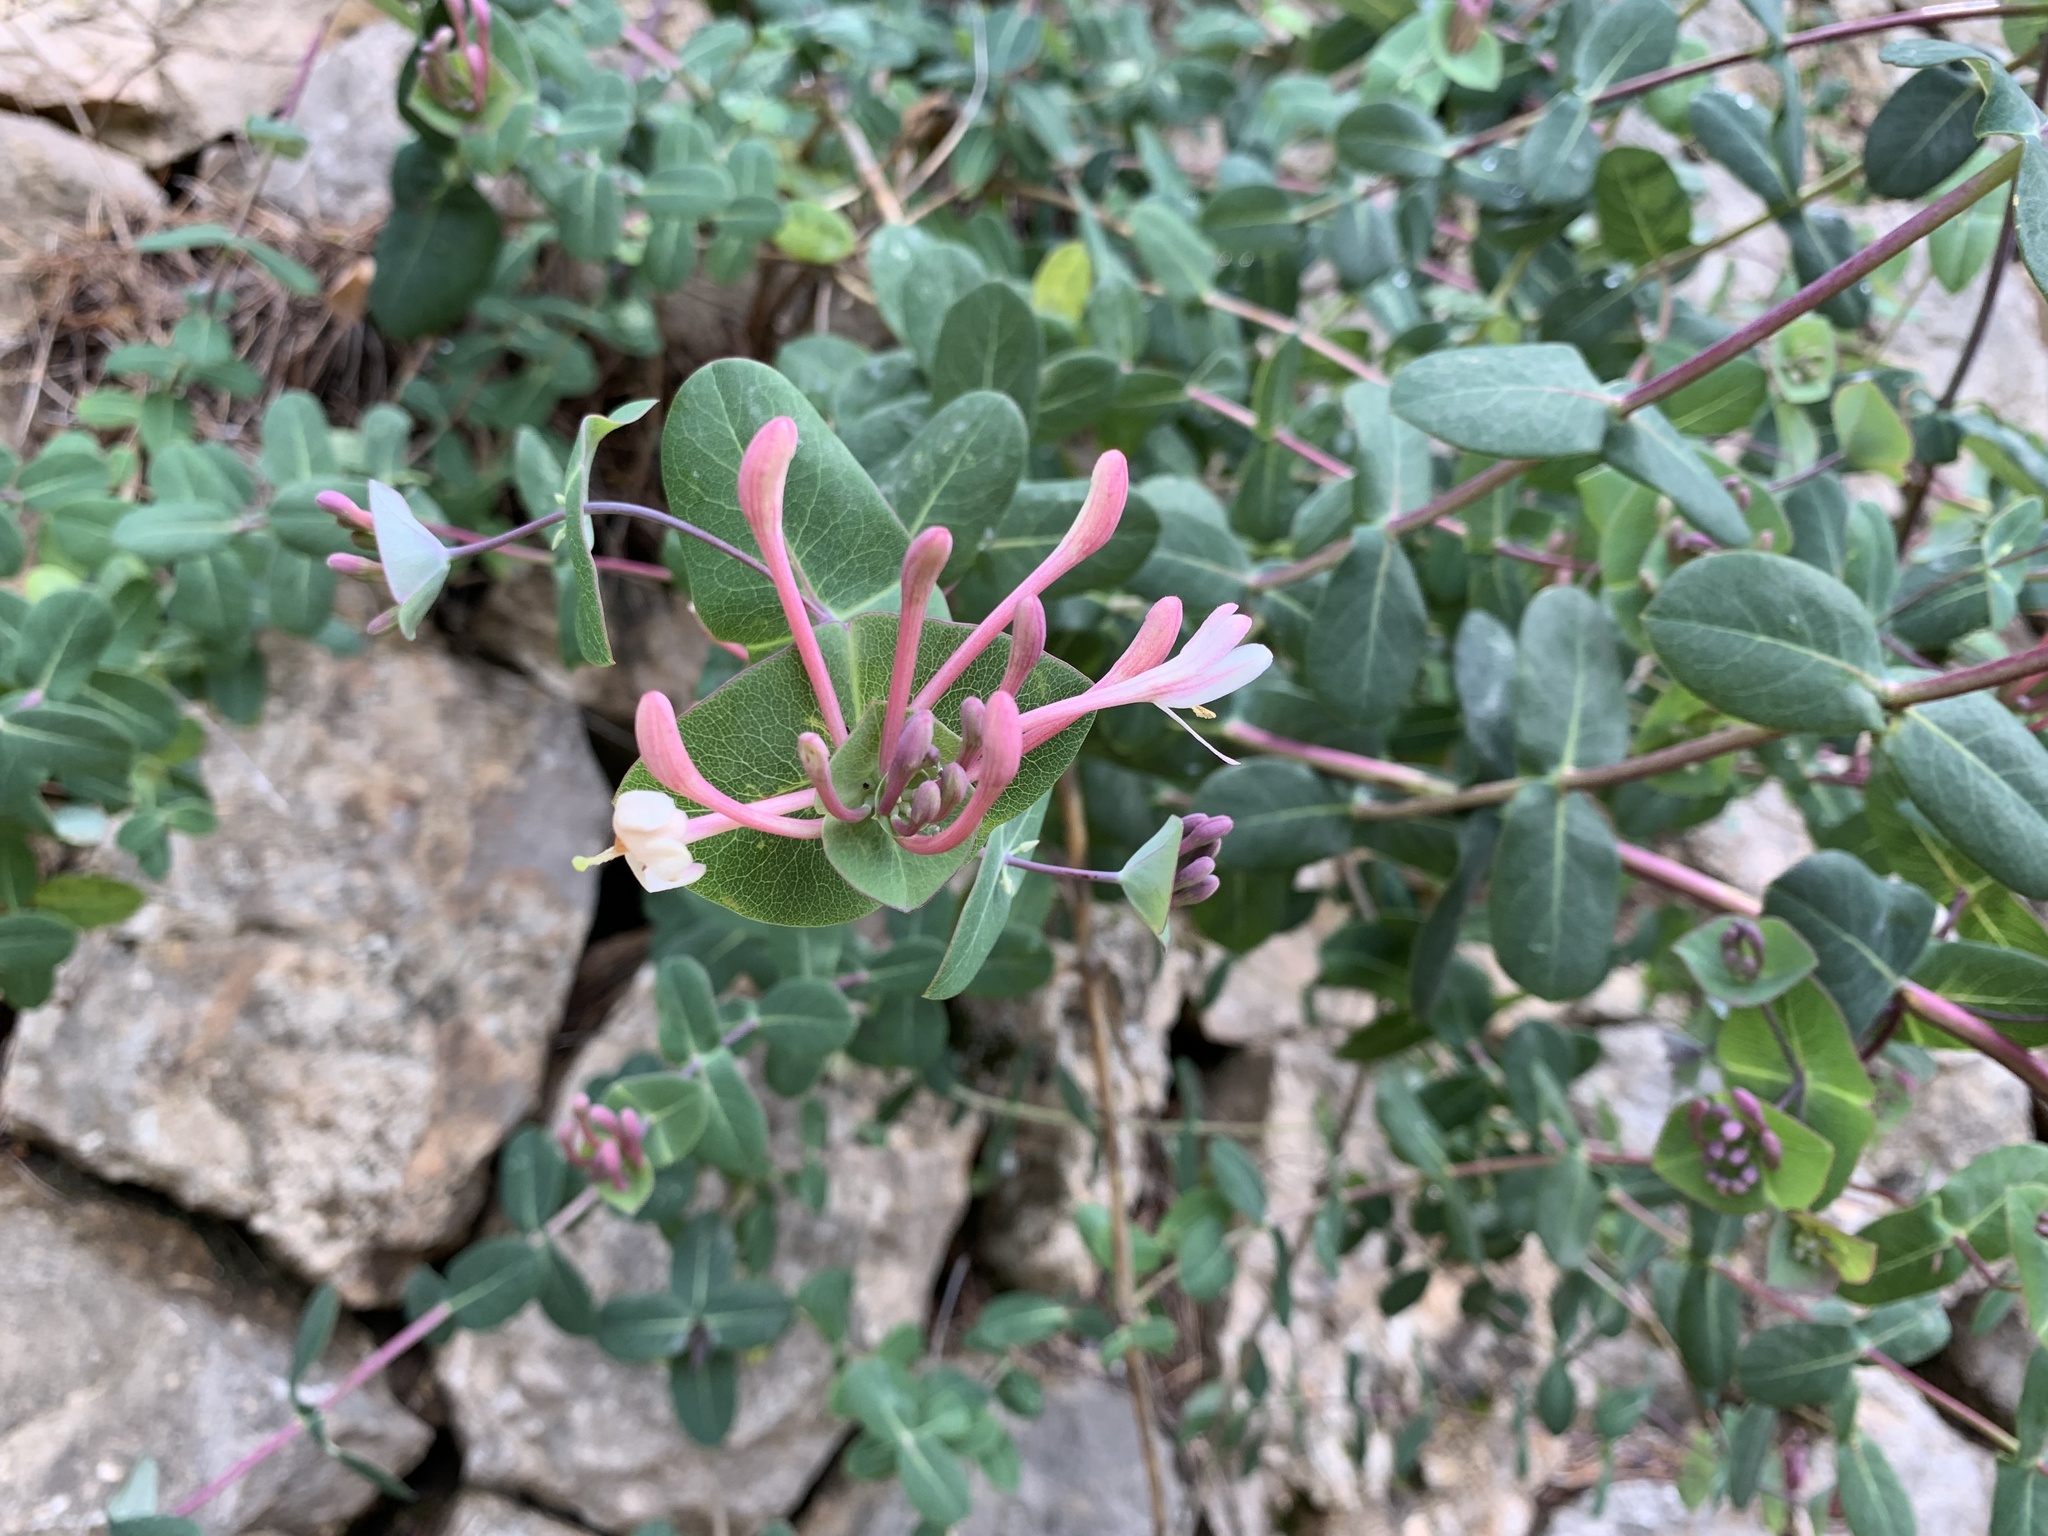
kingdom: Plantae
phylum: Tracheophyta
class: Magnoliopsida
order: Dipsacales
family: Caprifoliaceae
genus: Lonicera
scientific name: Lonicera implexa
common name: Minorca honeysuckle
